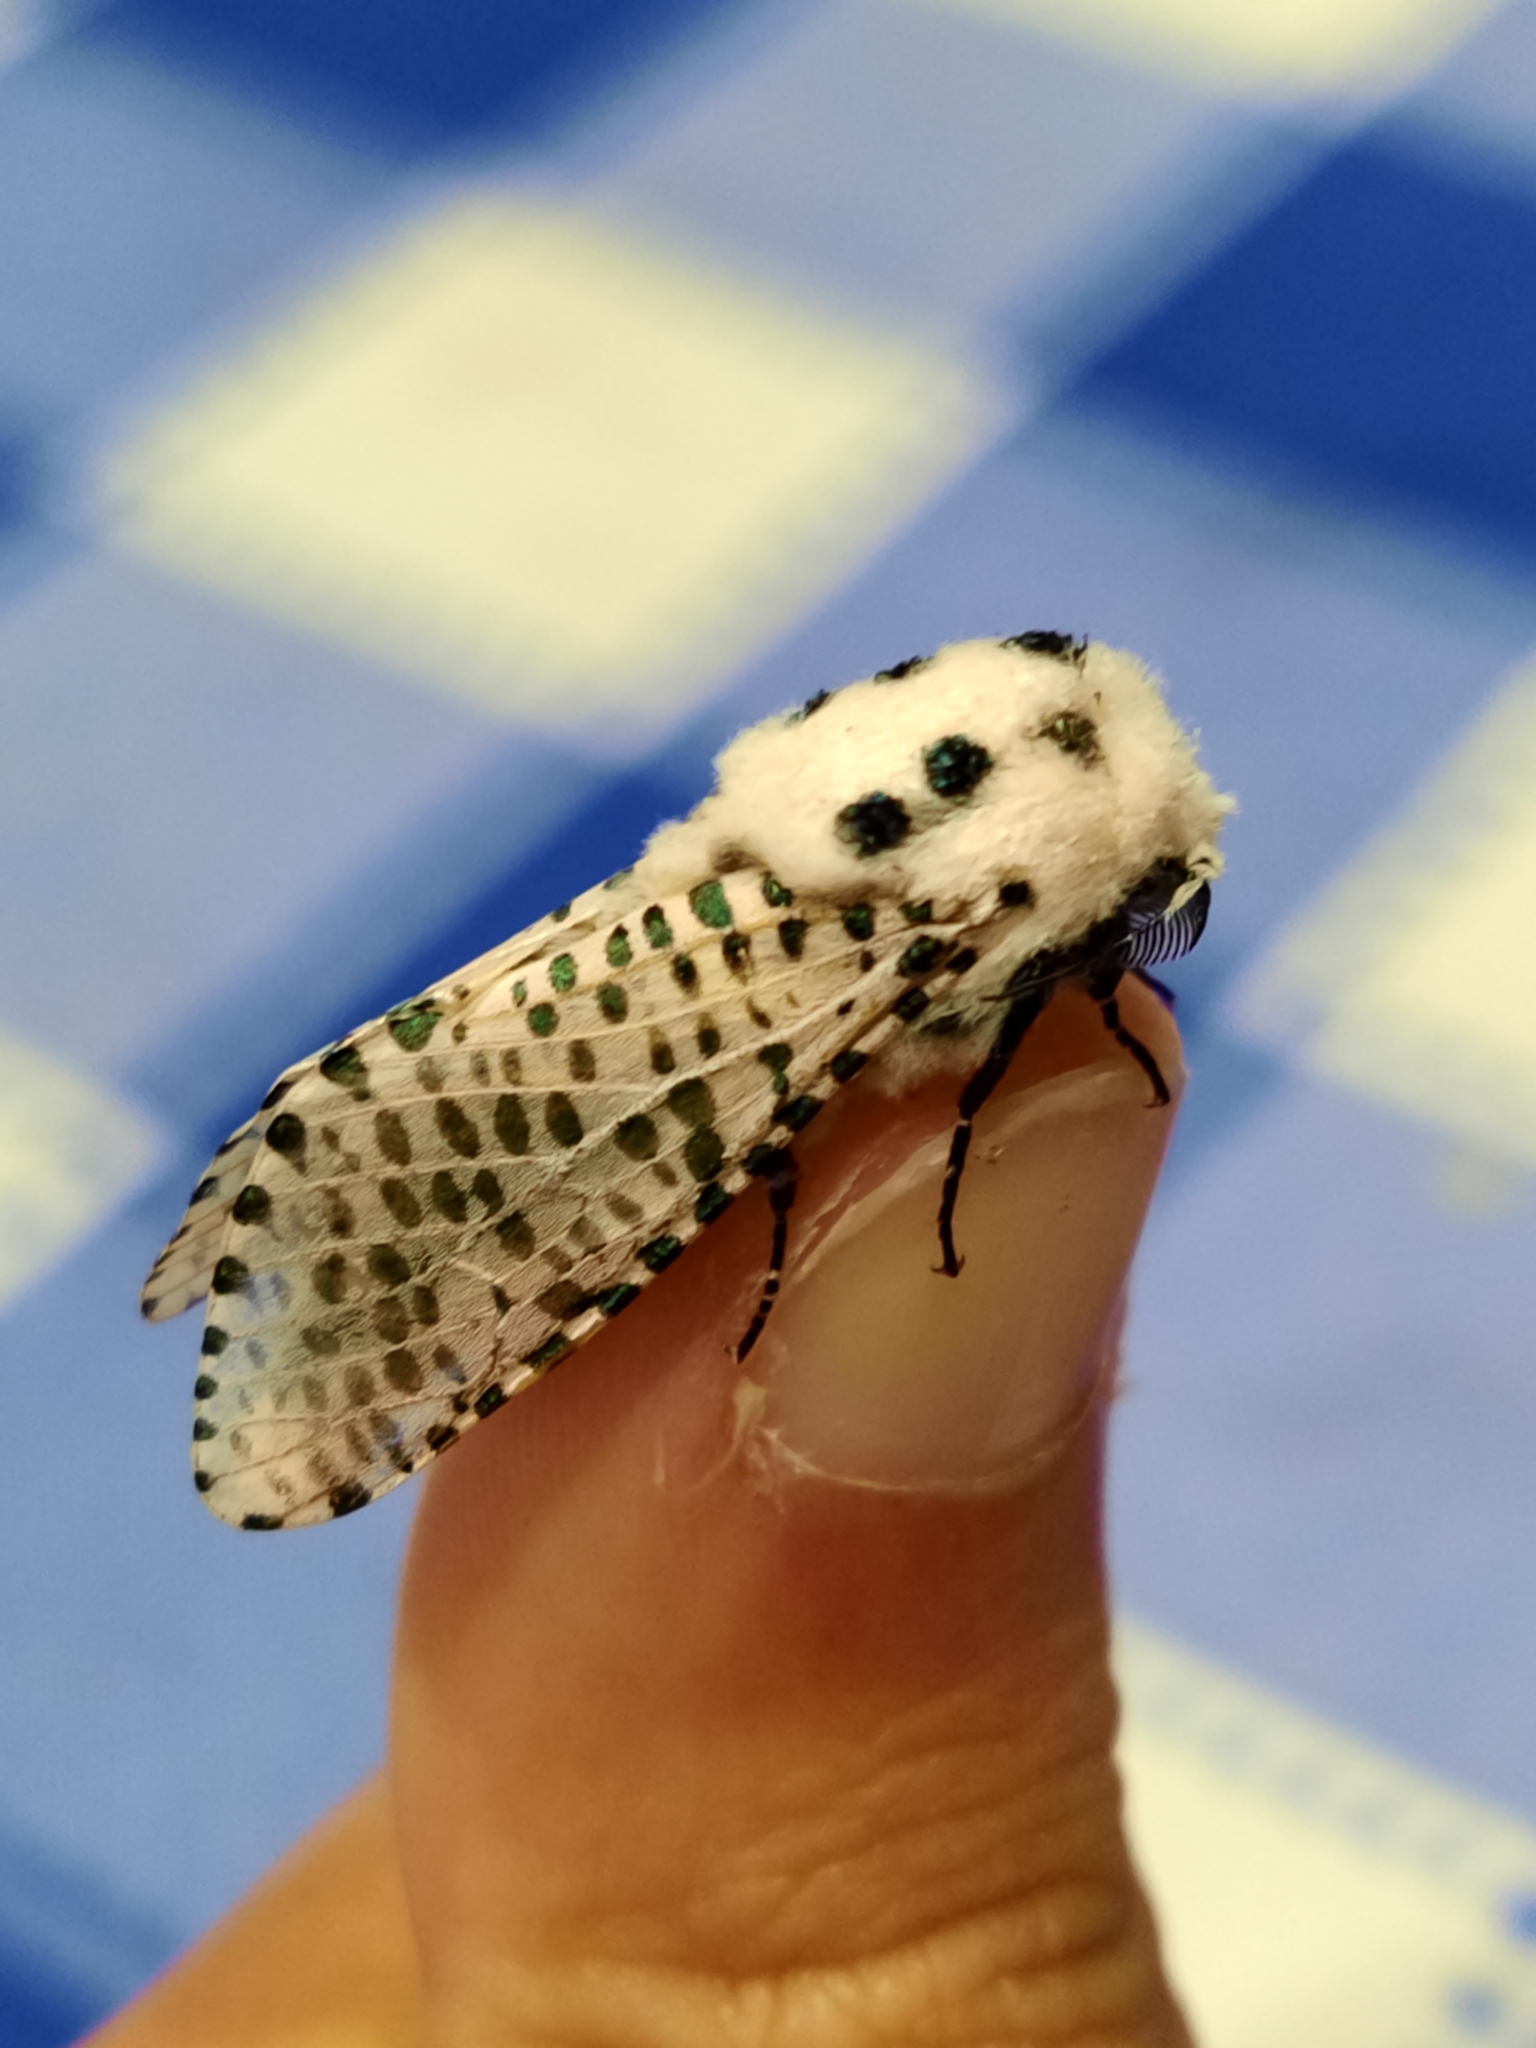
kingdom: Animalia
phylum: Arthropoda
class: Insecta
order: Lepidoptera
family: Cossidae
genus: Zeuzera
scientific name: Zeuzera pyrina
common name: Leopard moth
